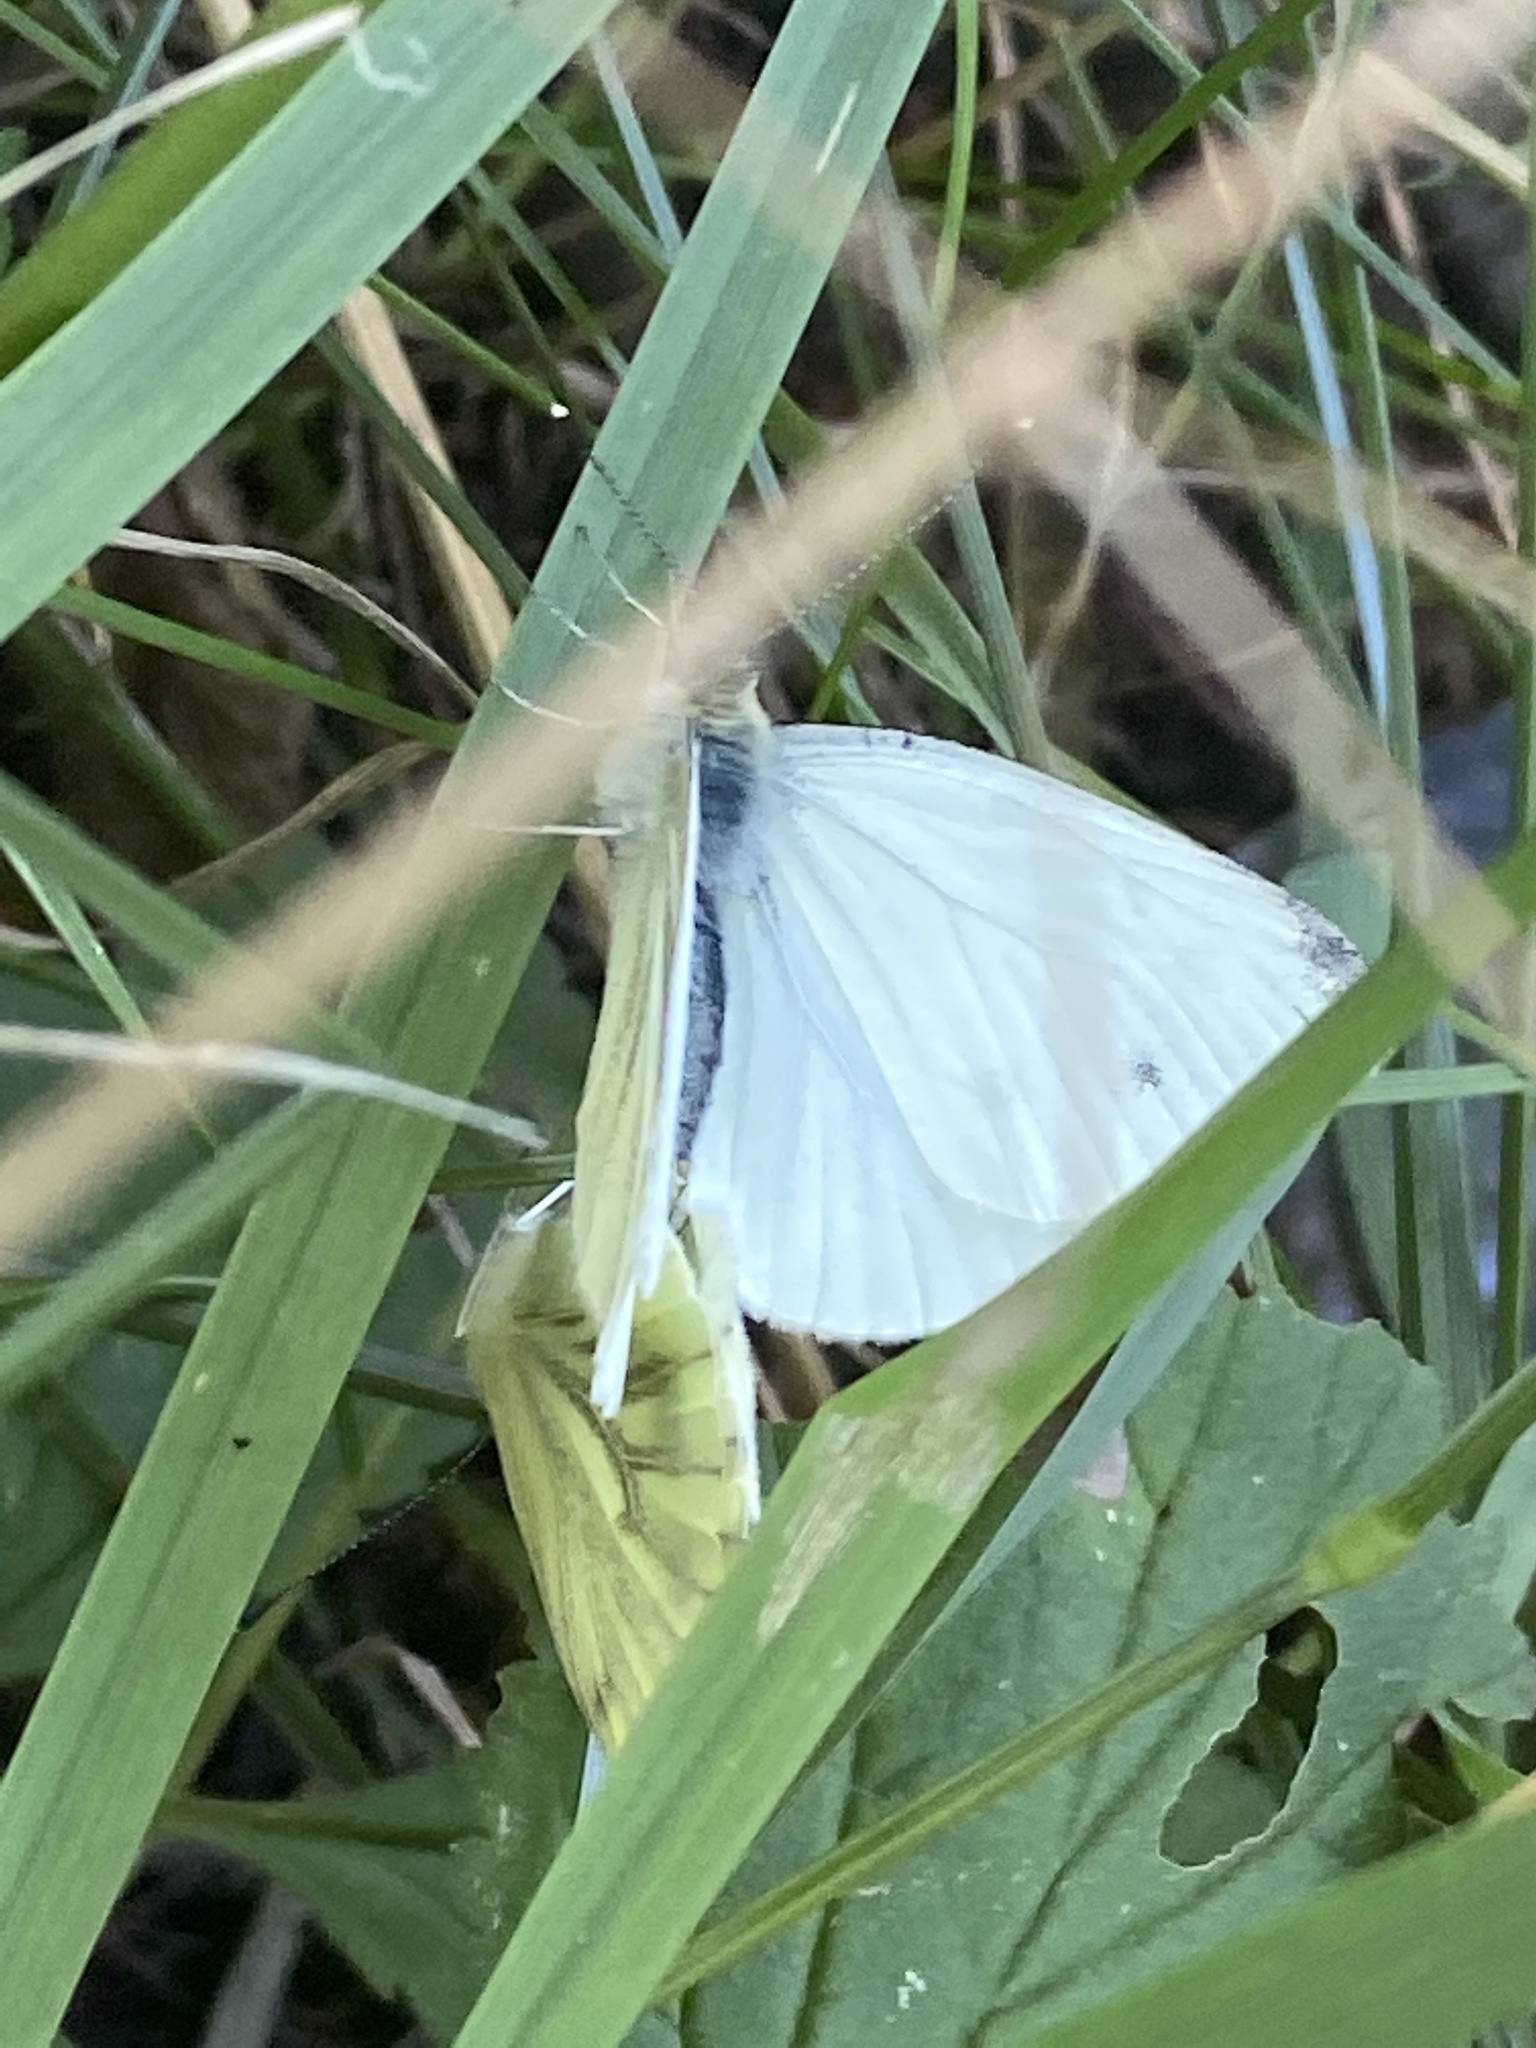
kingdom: Animalia
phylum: Arthropoda
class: Insecta
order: Lepidoptera
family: Pieridae
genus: Pieris
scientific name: Pieris napi
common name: Green-veined white
